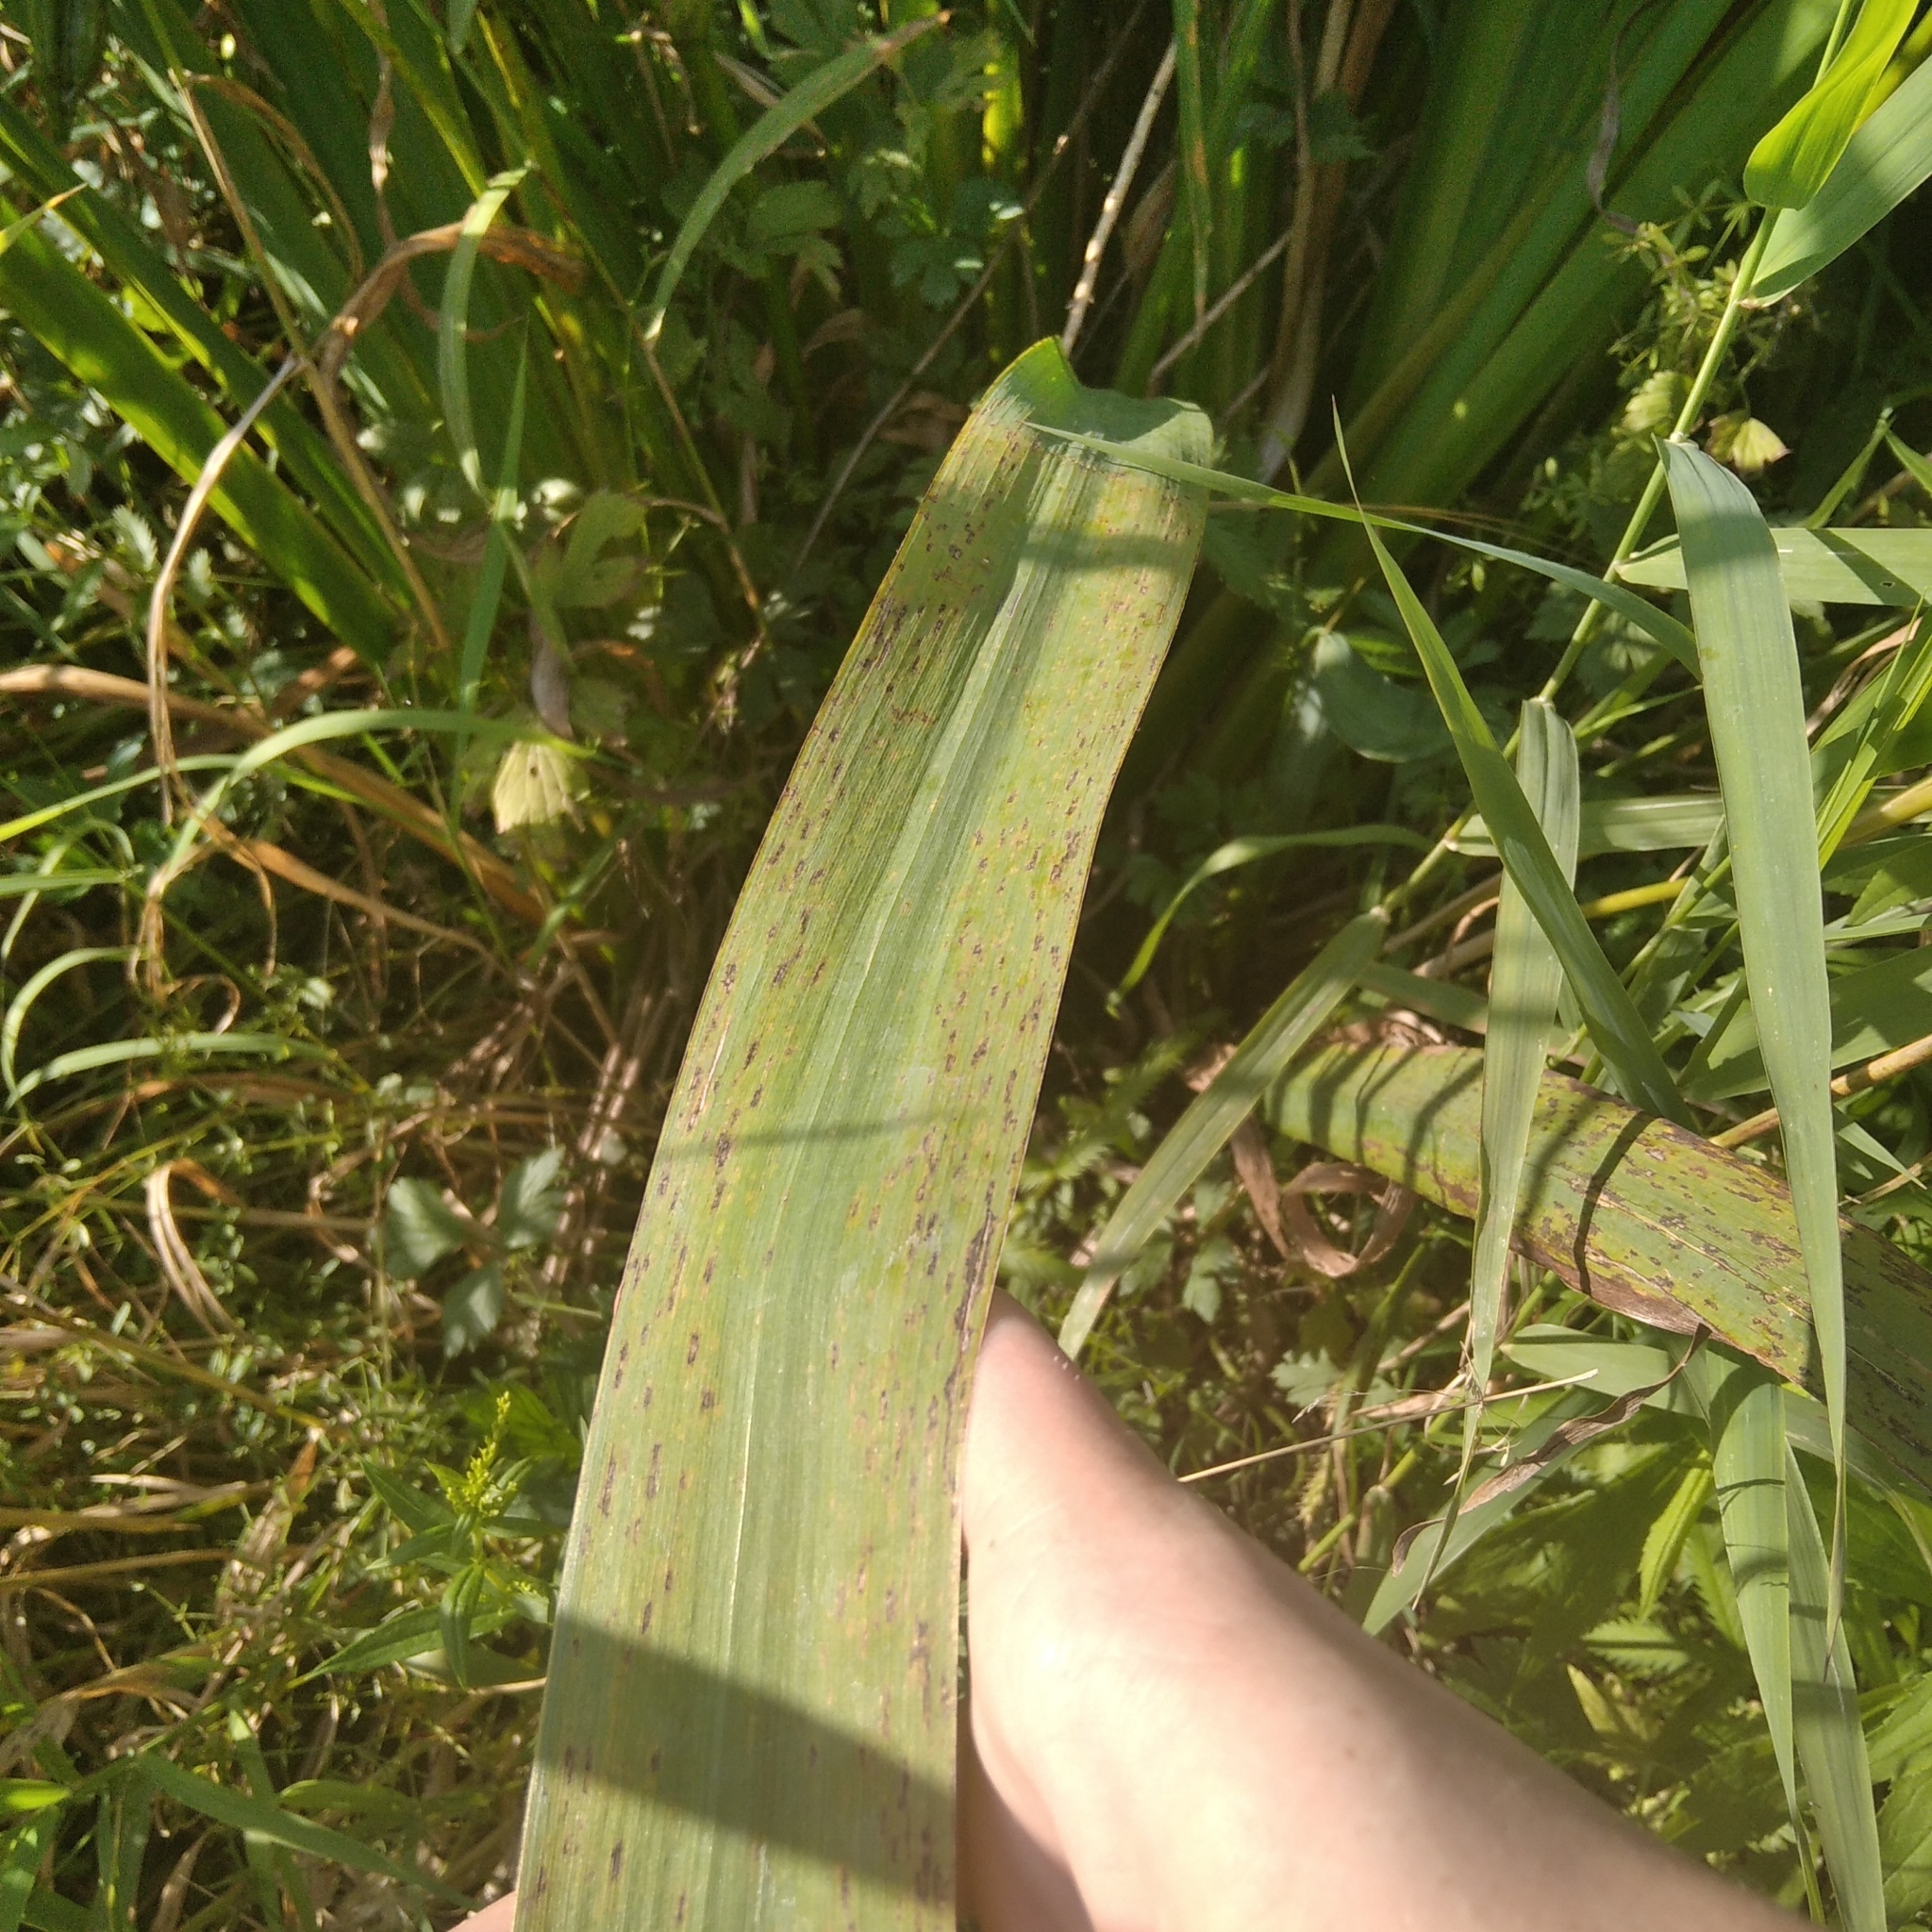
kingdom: Plantae
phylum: Tracheophyta
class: Liliopsida
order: Asparagales
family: Iridaceae
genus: Iris
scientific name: Iris pseudacorus
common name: Yellow flag
